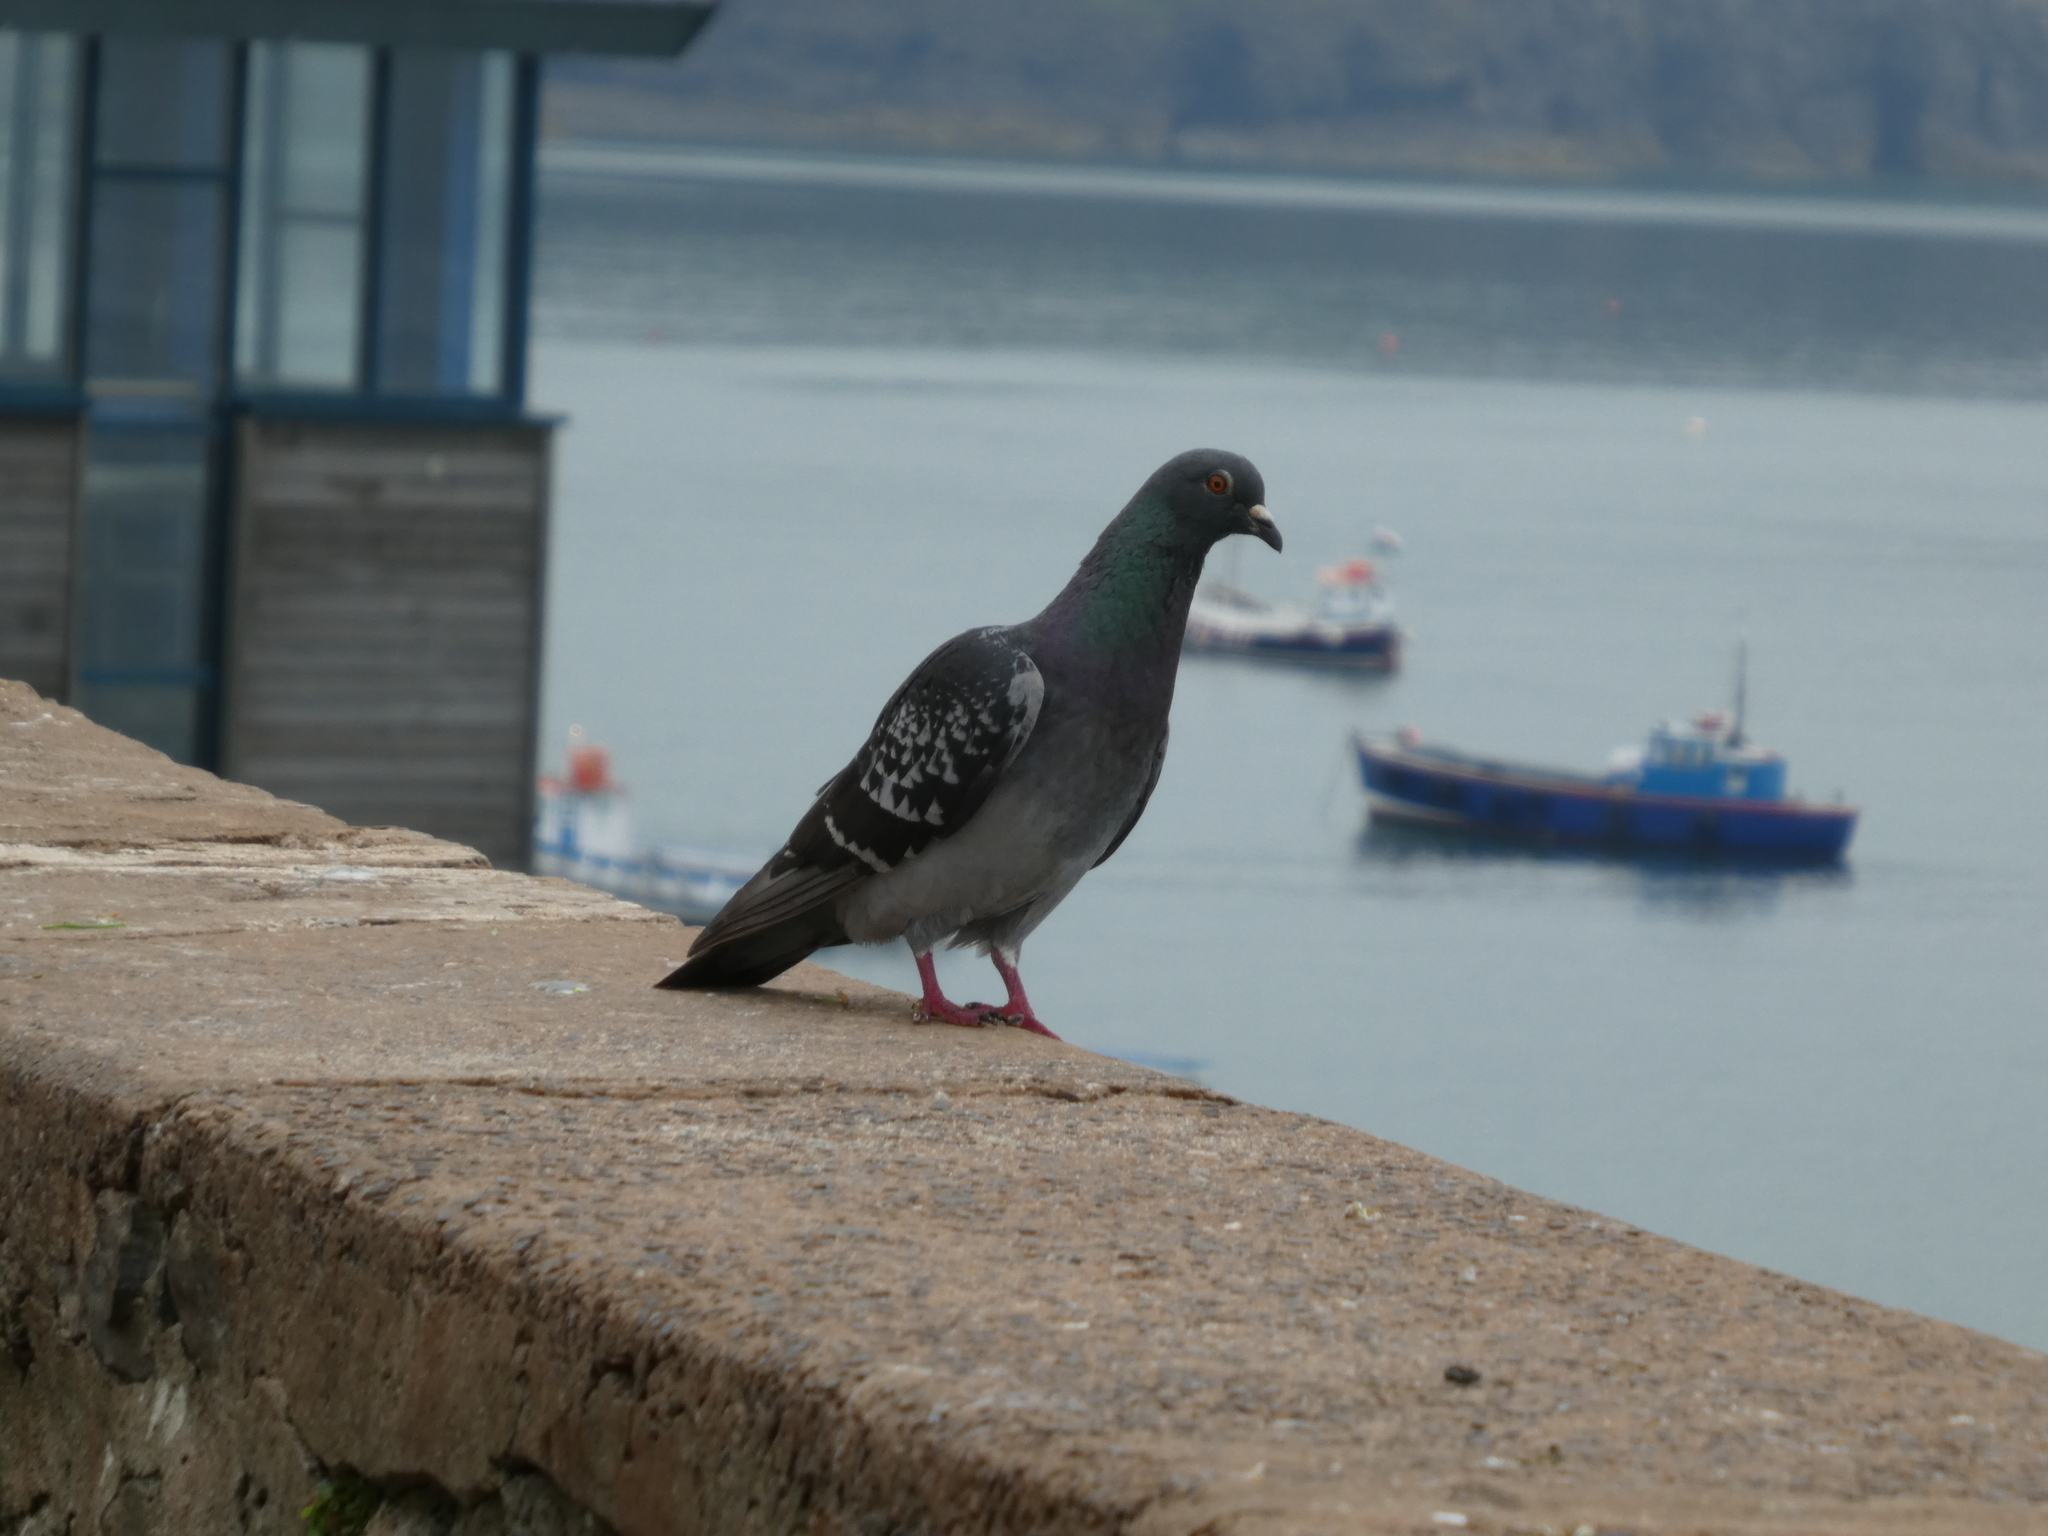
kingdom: Animalia
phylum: Chordata
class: Aves
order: Columbiformes
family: Columbidae
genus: Columba
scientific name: Columba livia
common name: Rock pigeon
